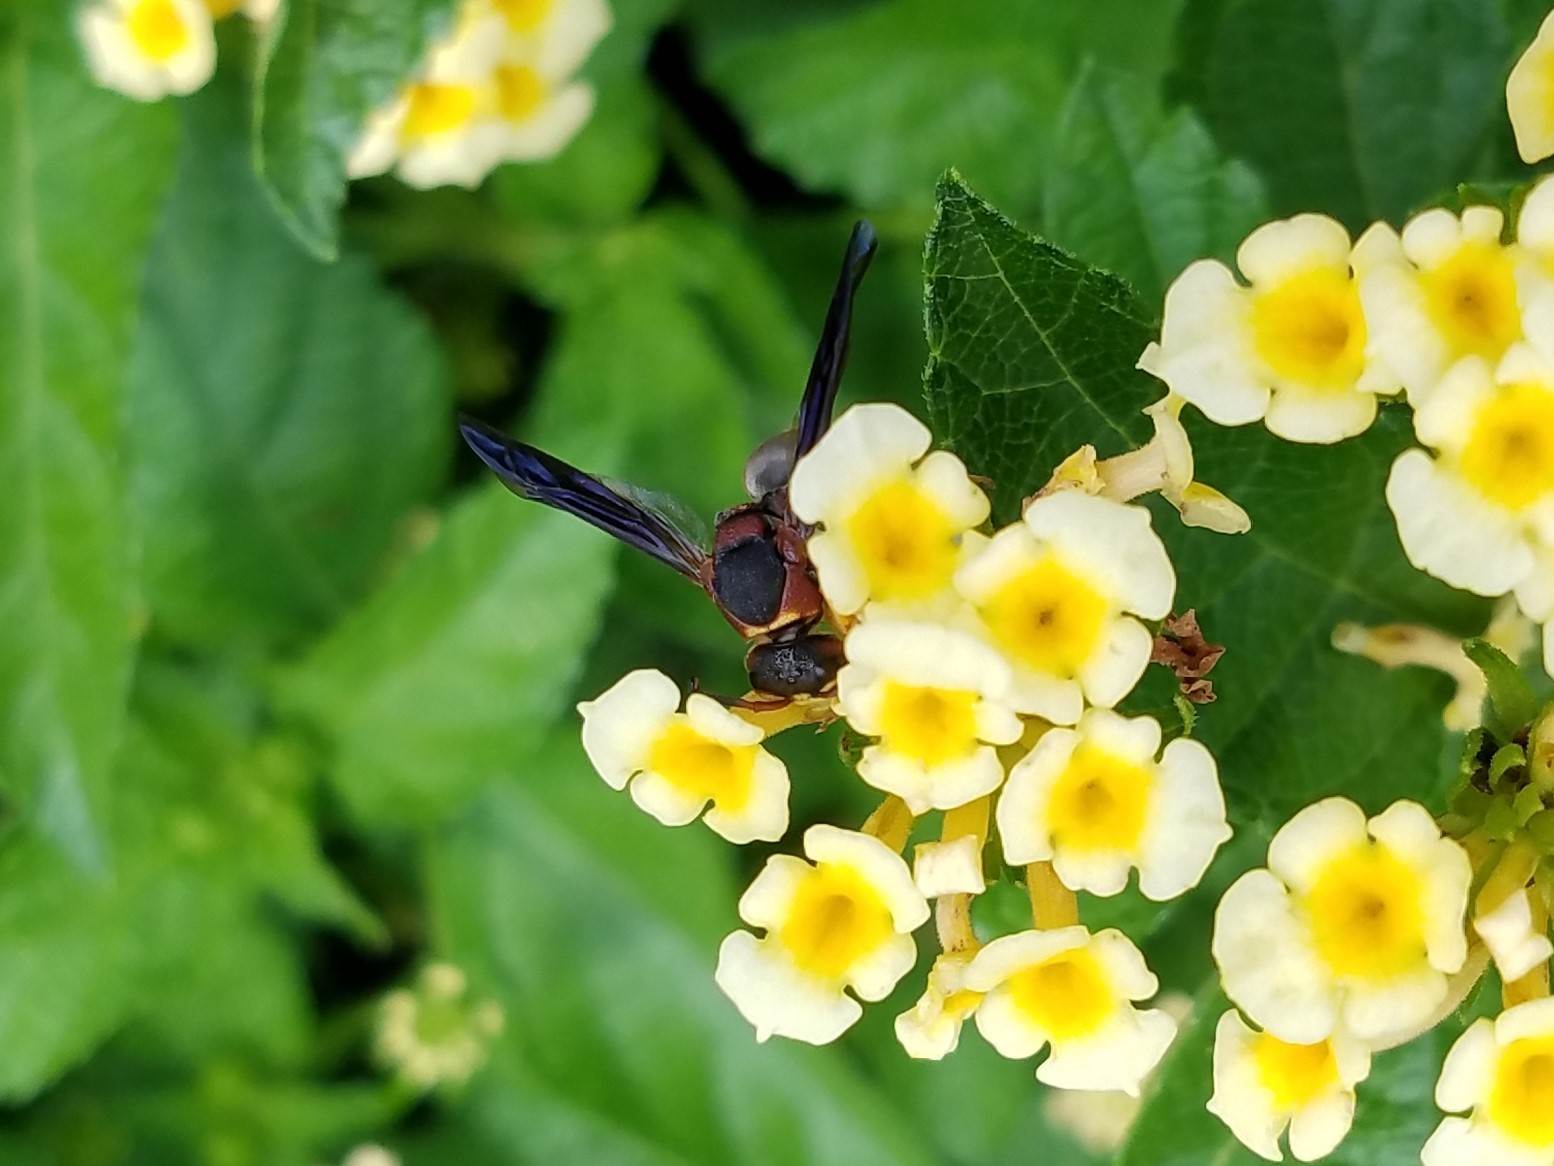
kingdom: Animalia
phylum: Arthropoda
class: Insecta
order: Hymenoptera
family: Eumenidae
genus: Euodynerus
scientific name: Euodynerus crypticus
